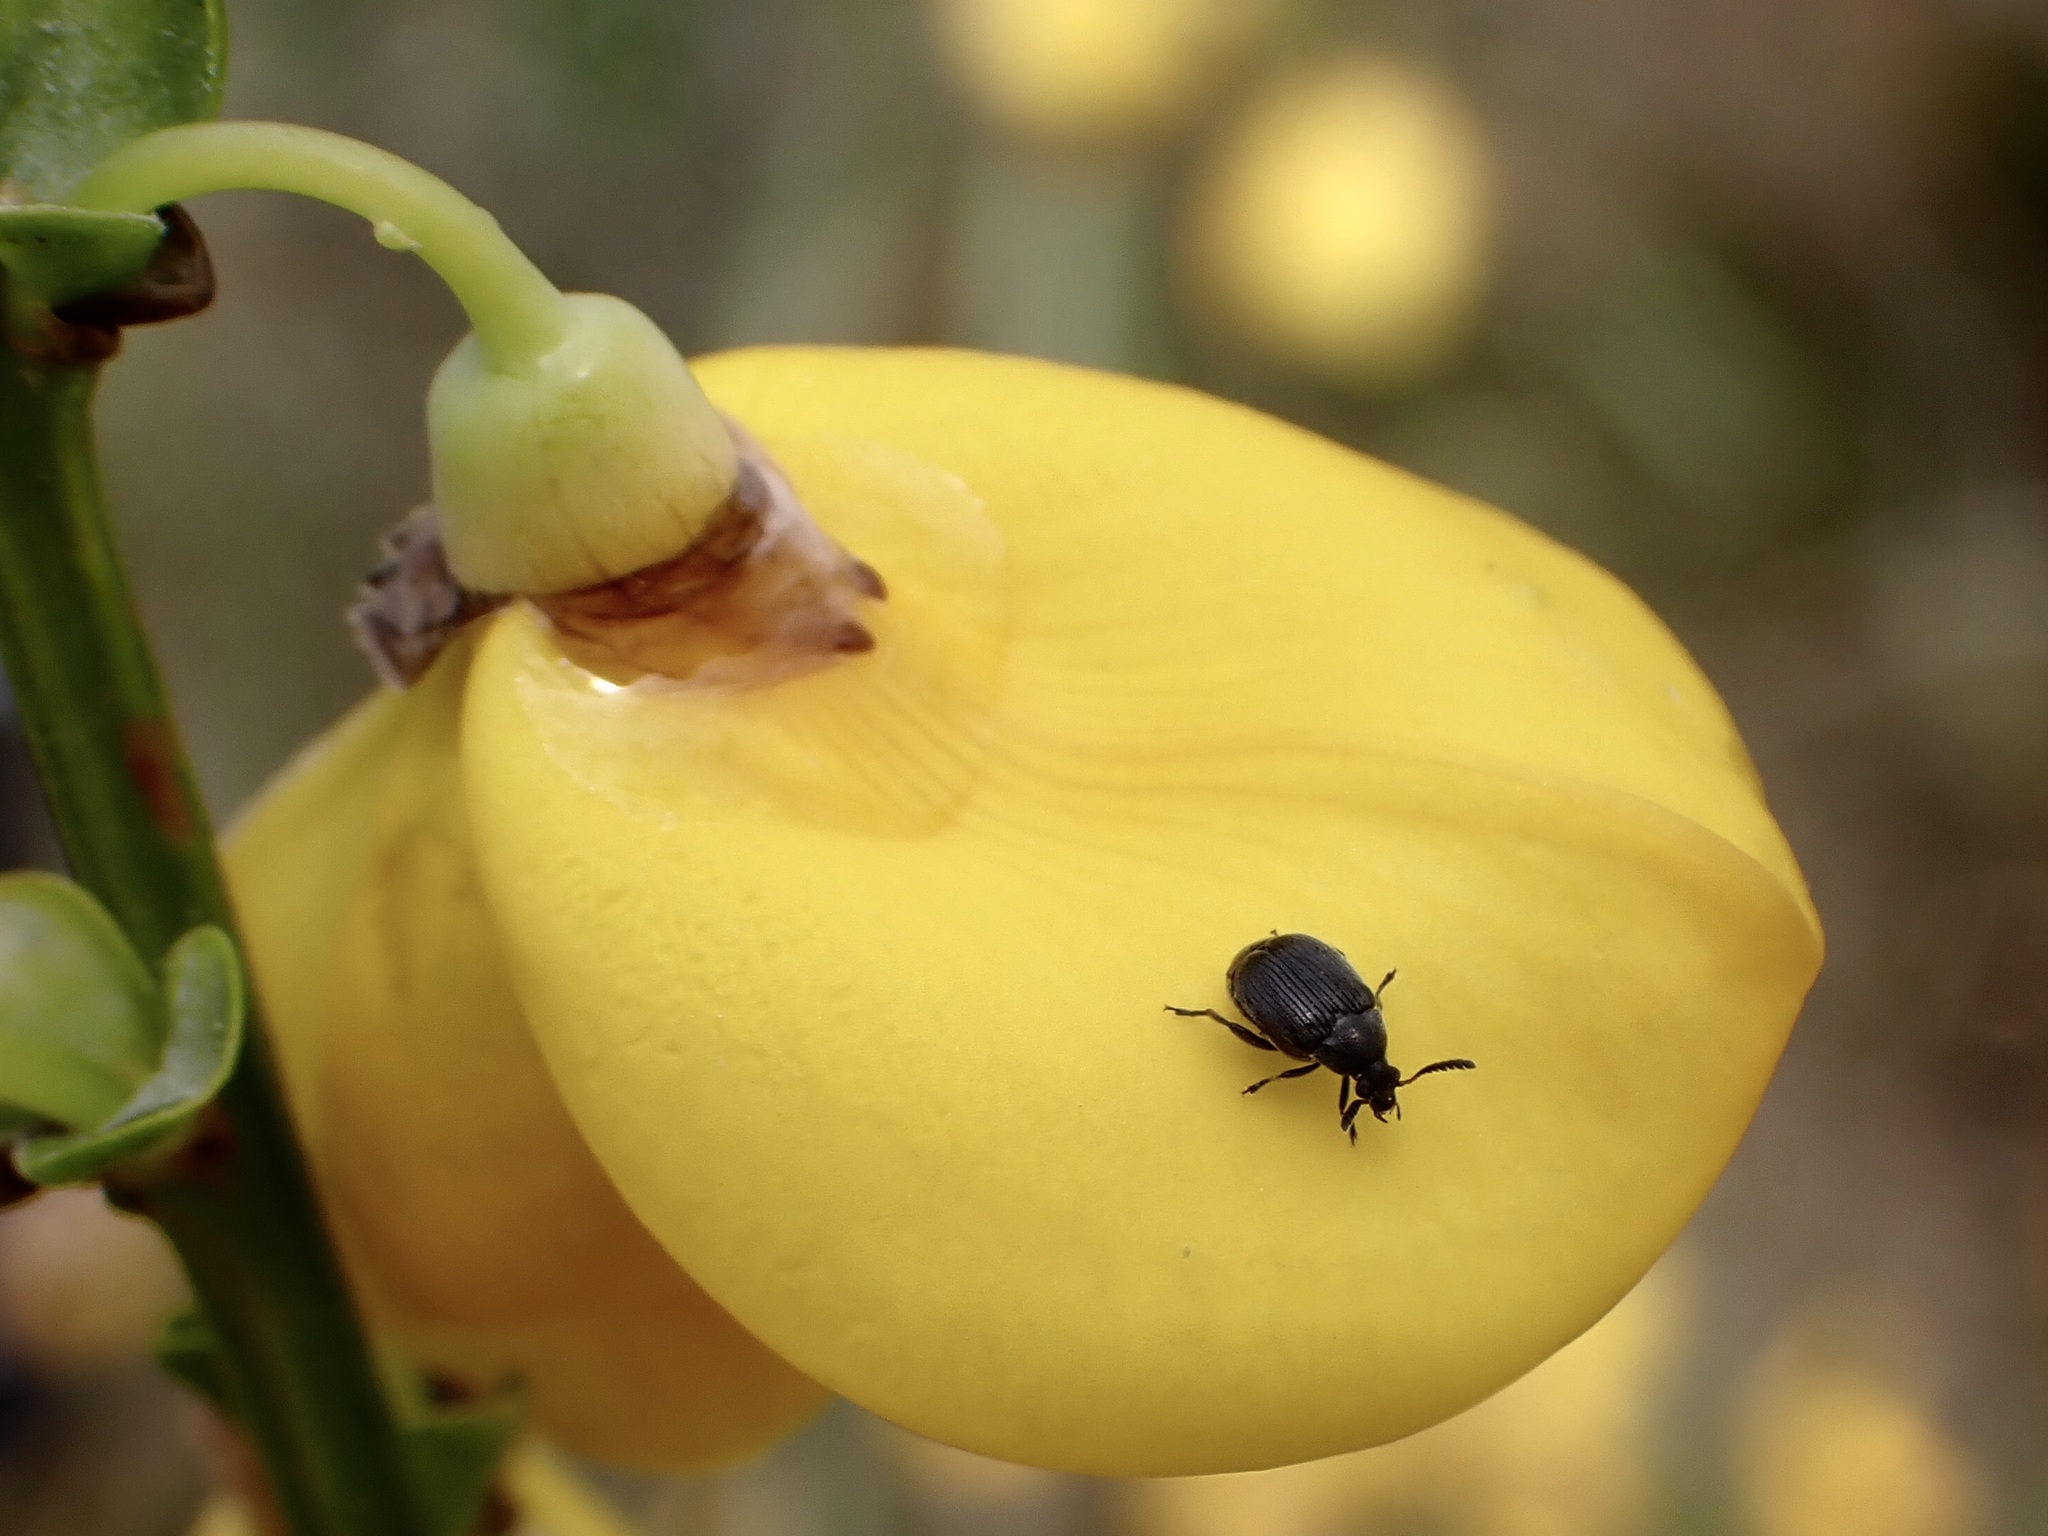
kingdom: Animalia
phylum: Arthropoda
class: Insecta
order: Coleoptera
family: Chrysomelidae
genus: Bruchidius
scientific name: Bruchidius villosus
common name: Scotch broom bruchid
